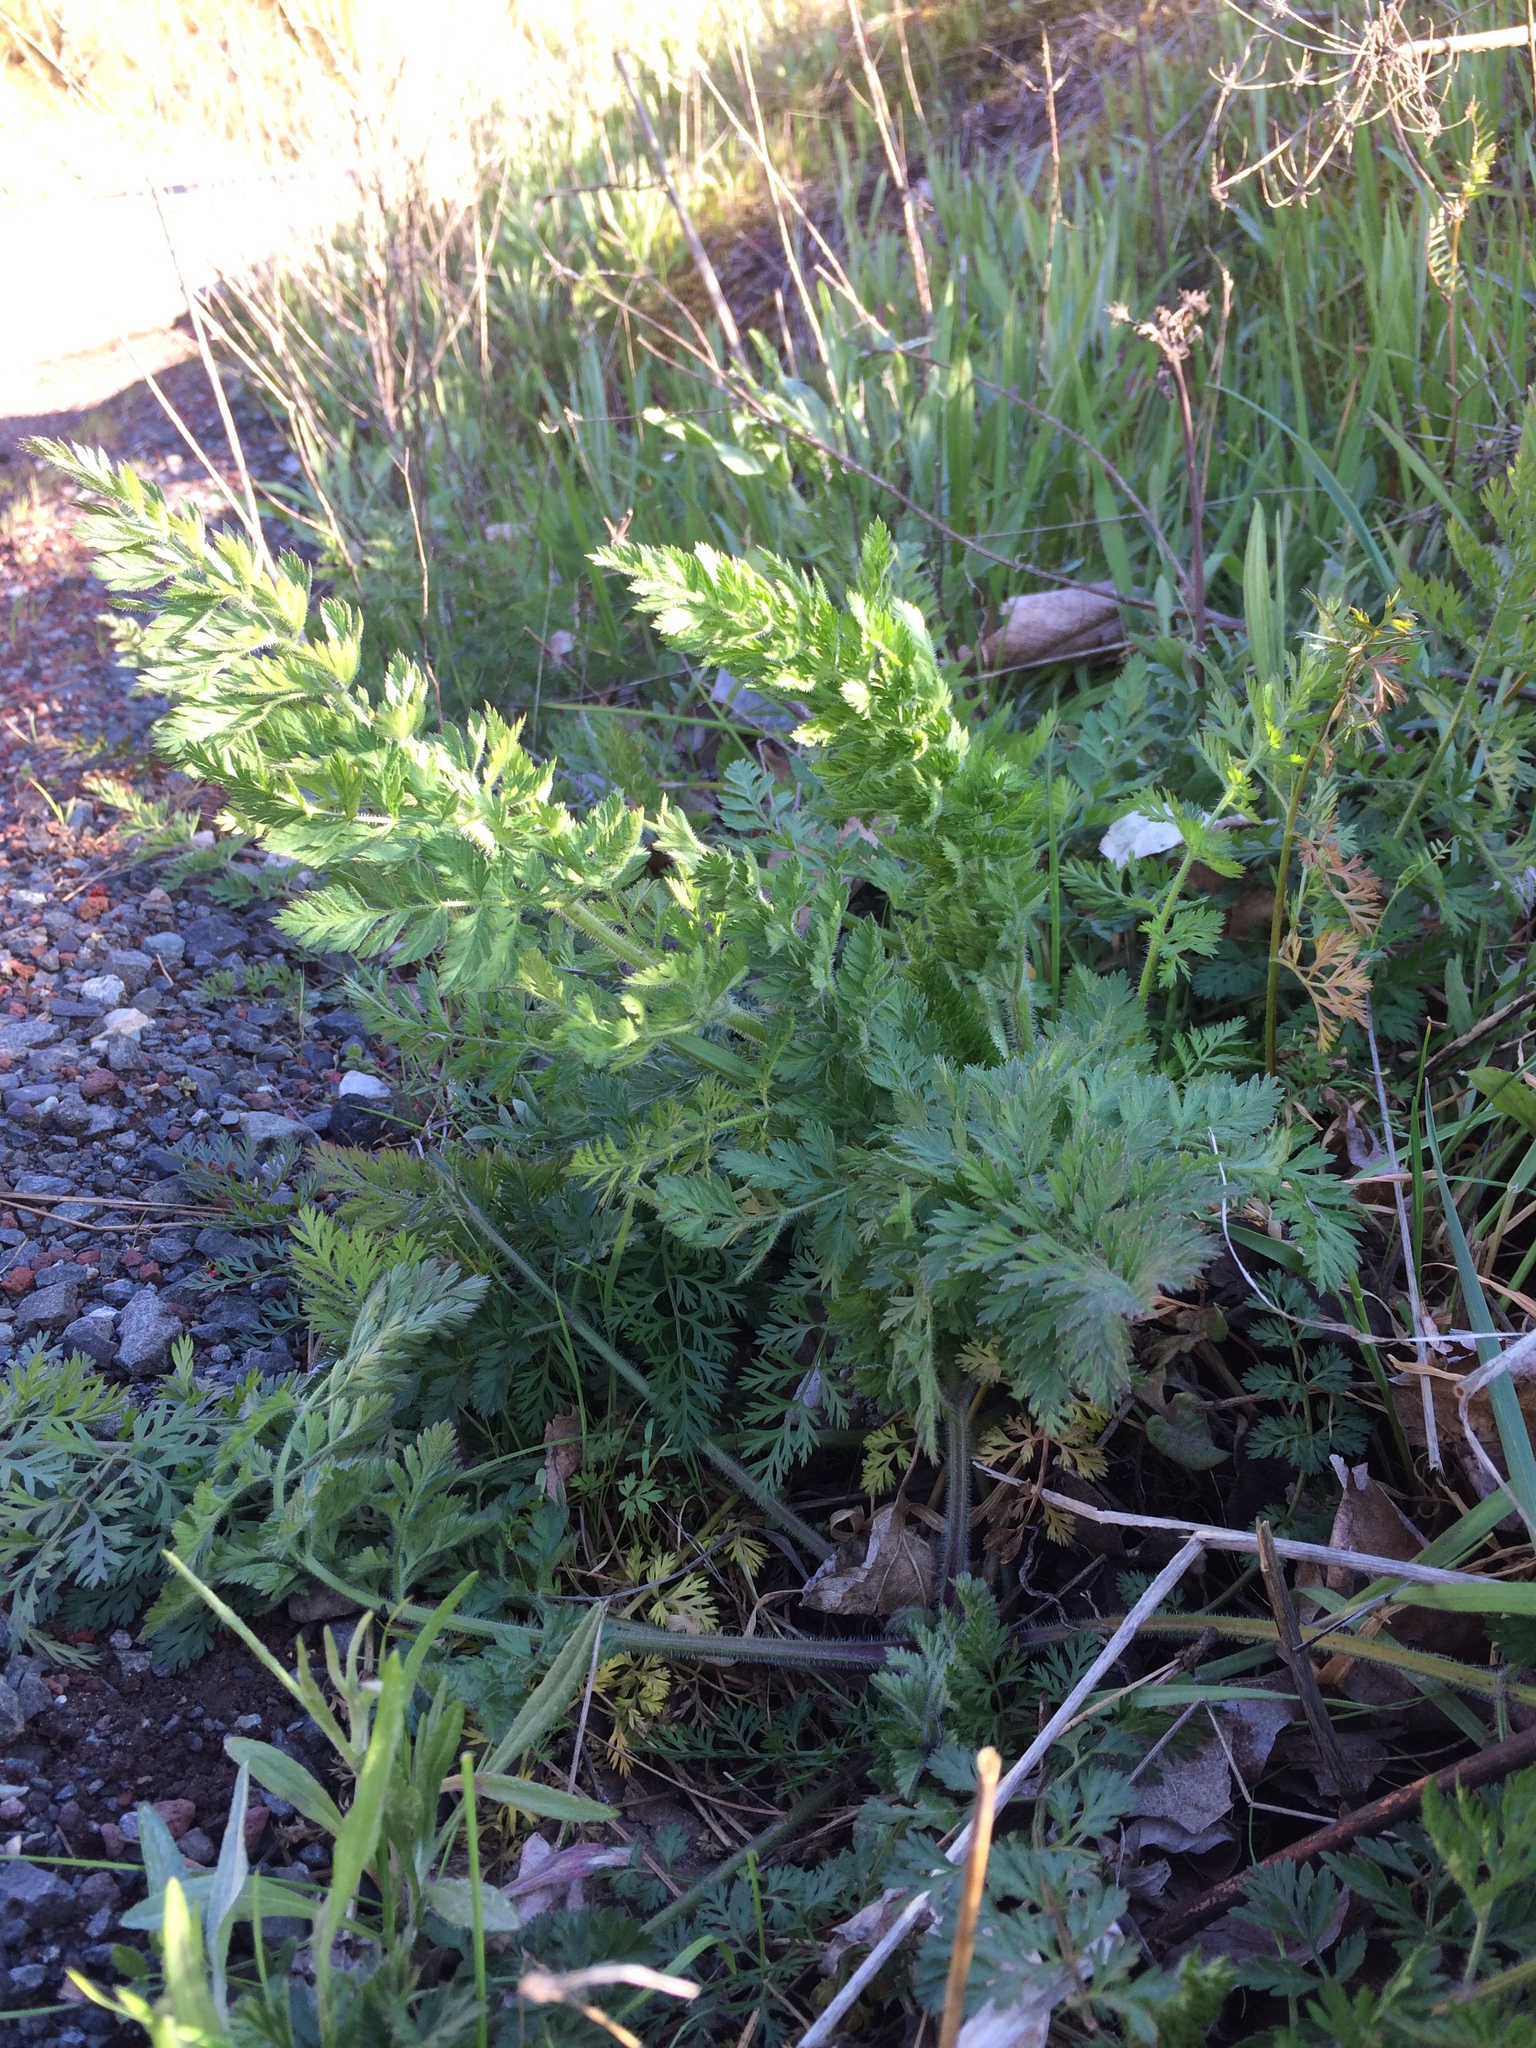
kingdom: Plantae
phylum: Tracheophyta
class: Magnoliopsida
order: Apiales
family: Apiaceae
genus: Daucus
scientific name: Daucus carota
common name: Wild carrot
